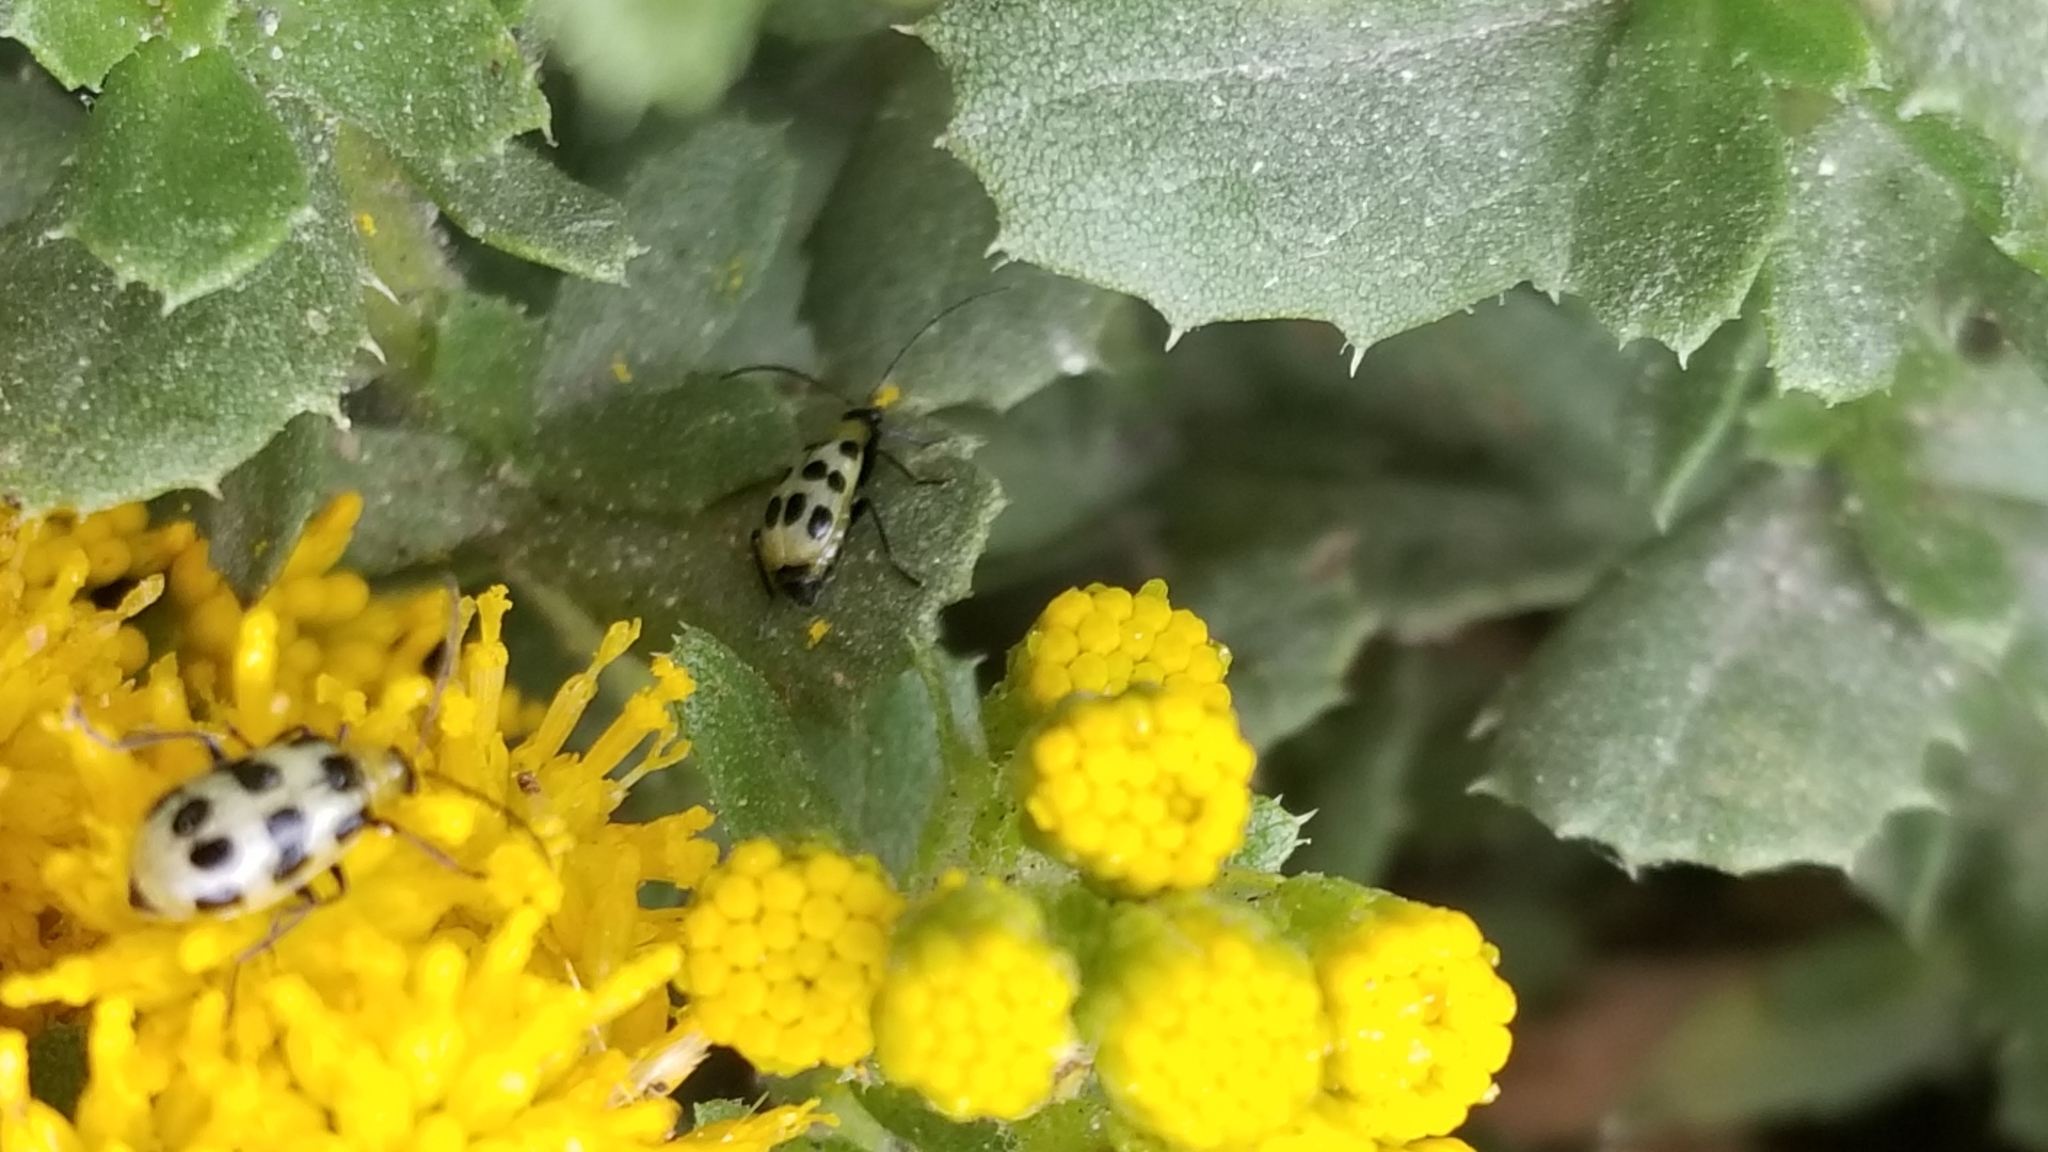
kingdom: Animalia
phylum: Arthropoda
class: Insecta
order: Coleoptera
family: Chrysomelidae
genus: Diabrotica
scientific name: Diabrotica undecimpunctata
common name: Spotted cucumber beetle
